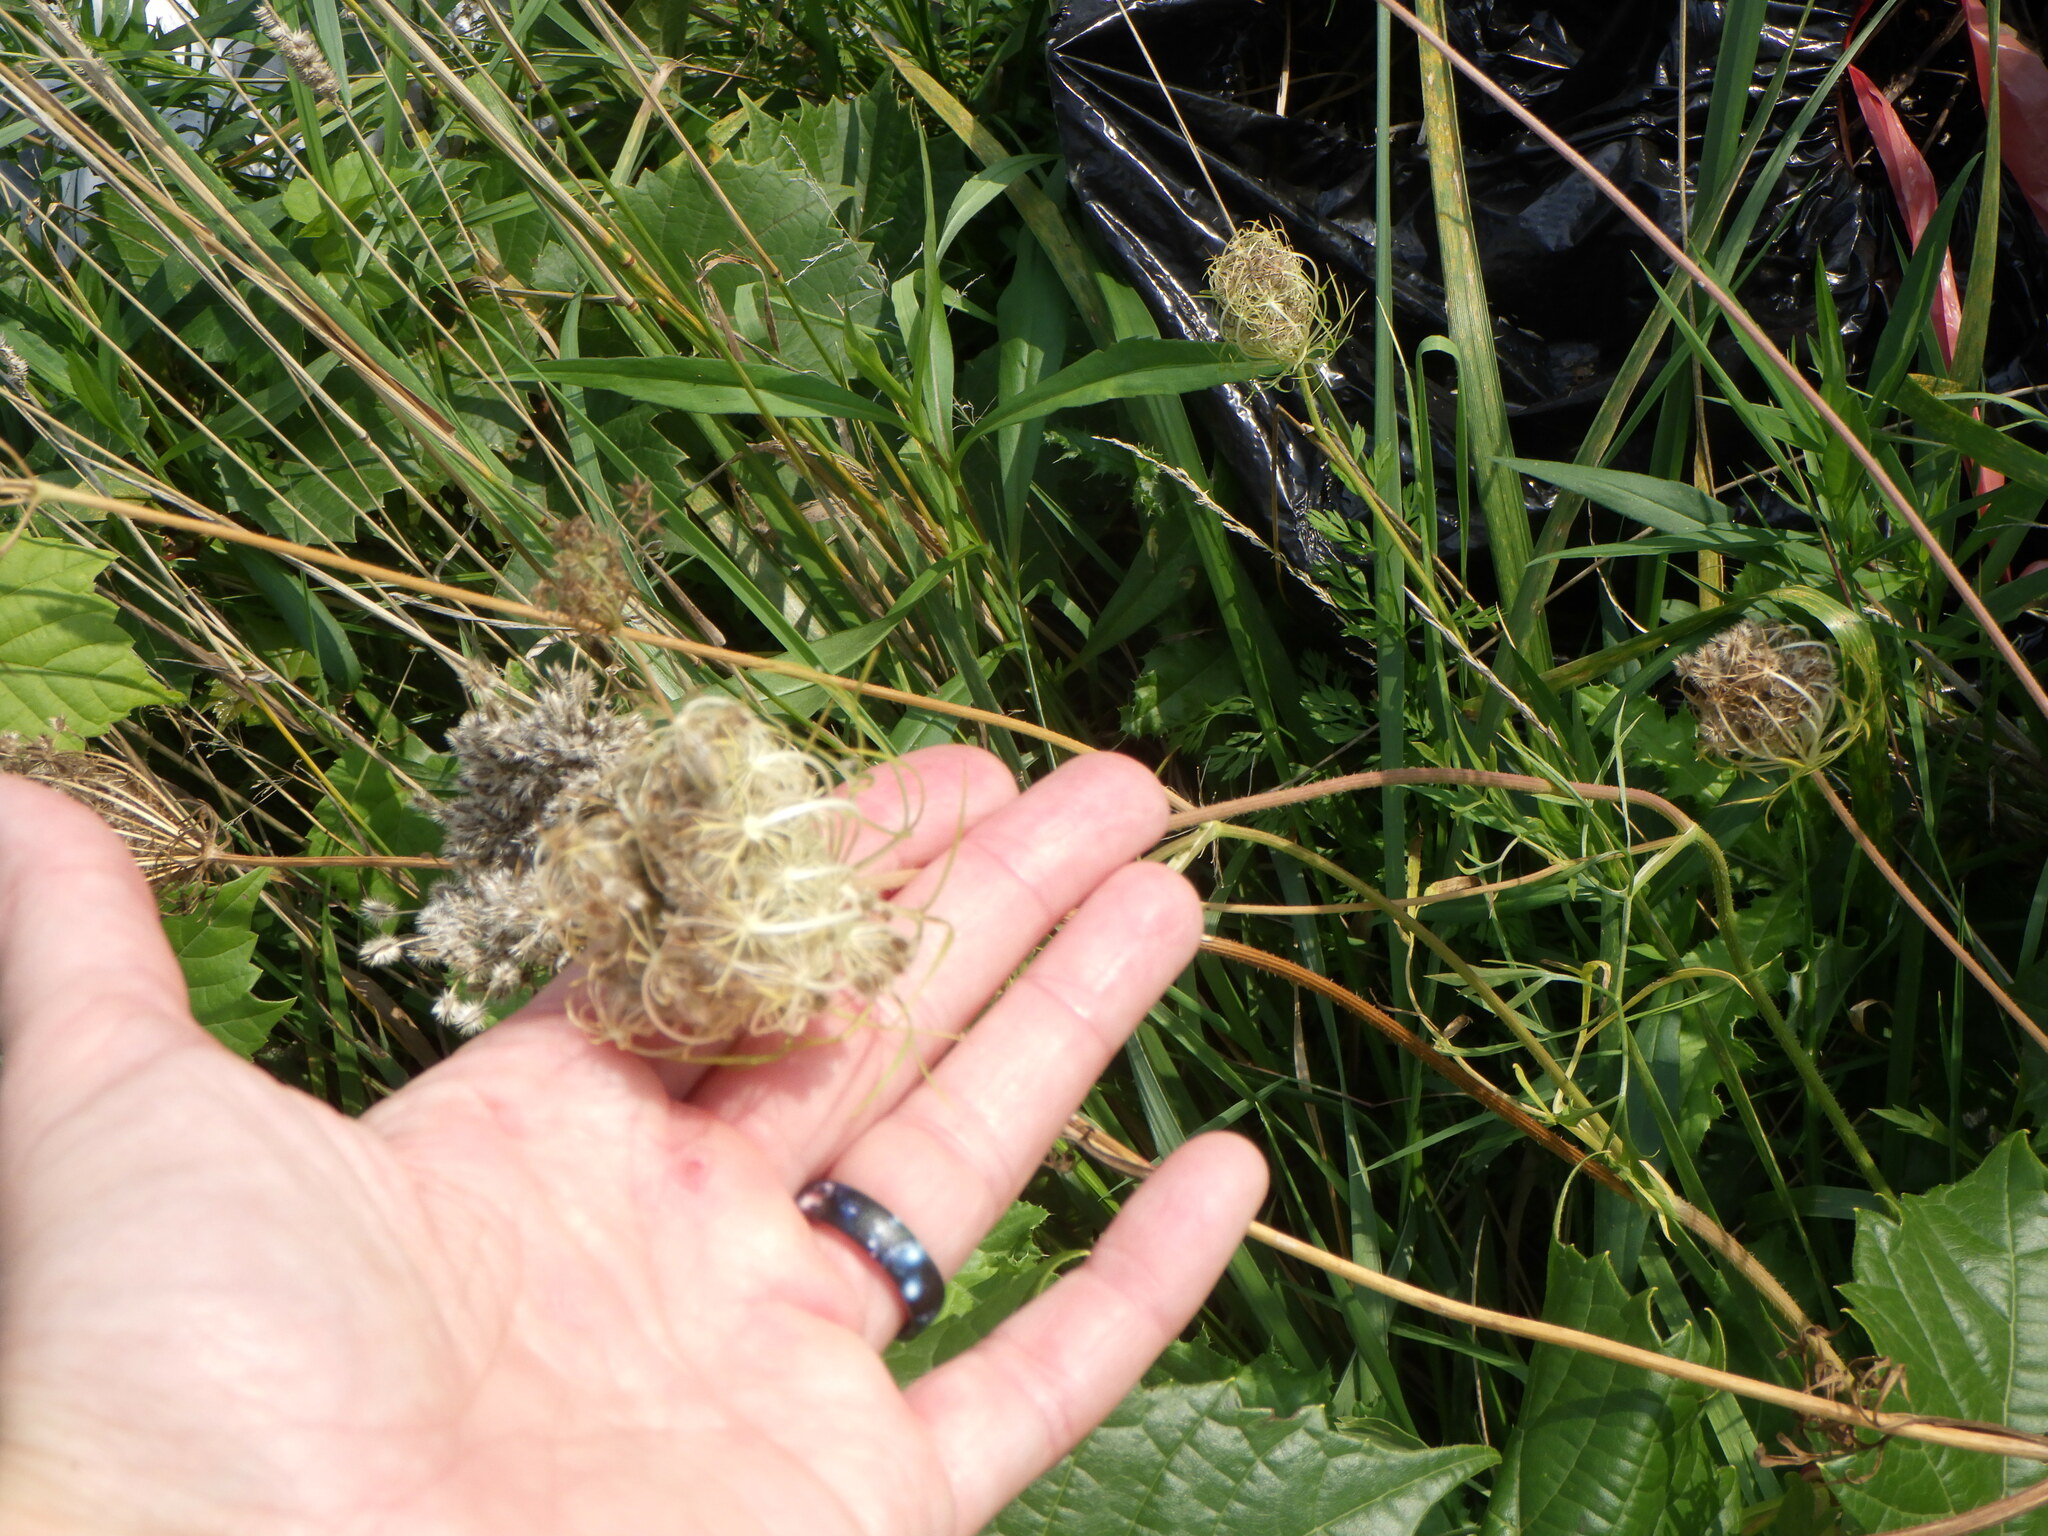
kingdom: Plantae
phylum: Tracheophyta
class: Magnoliopsida
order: Apiales
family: Apiaceae
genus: Daucus
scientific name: Daucus carota
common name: Wild carrot
